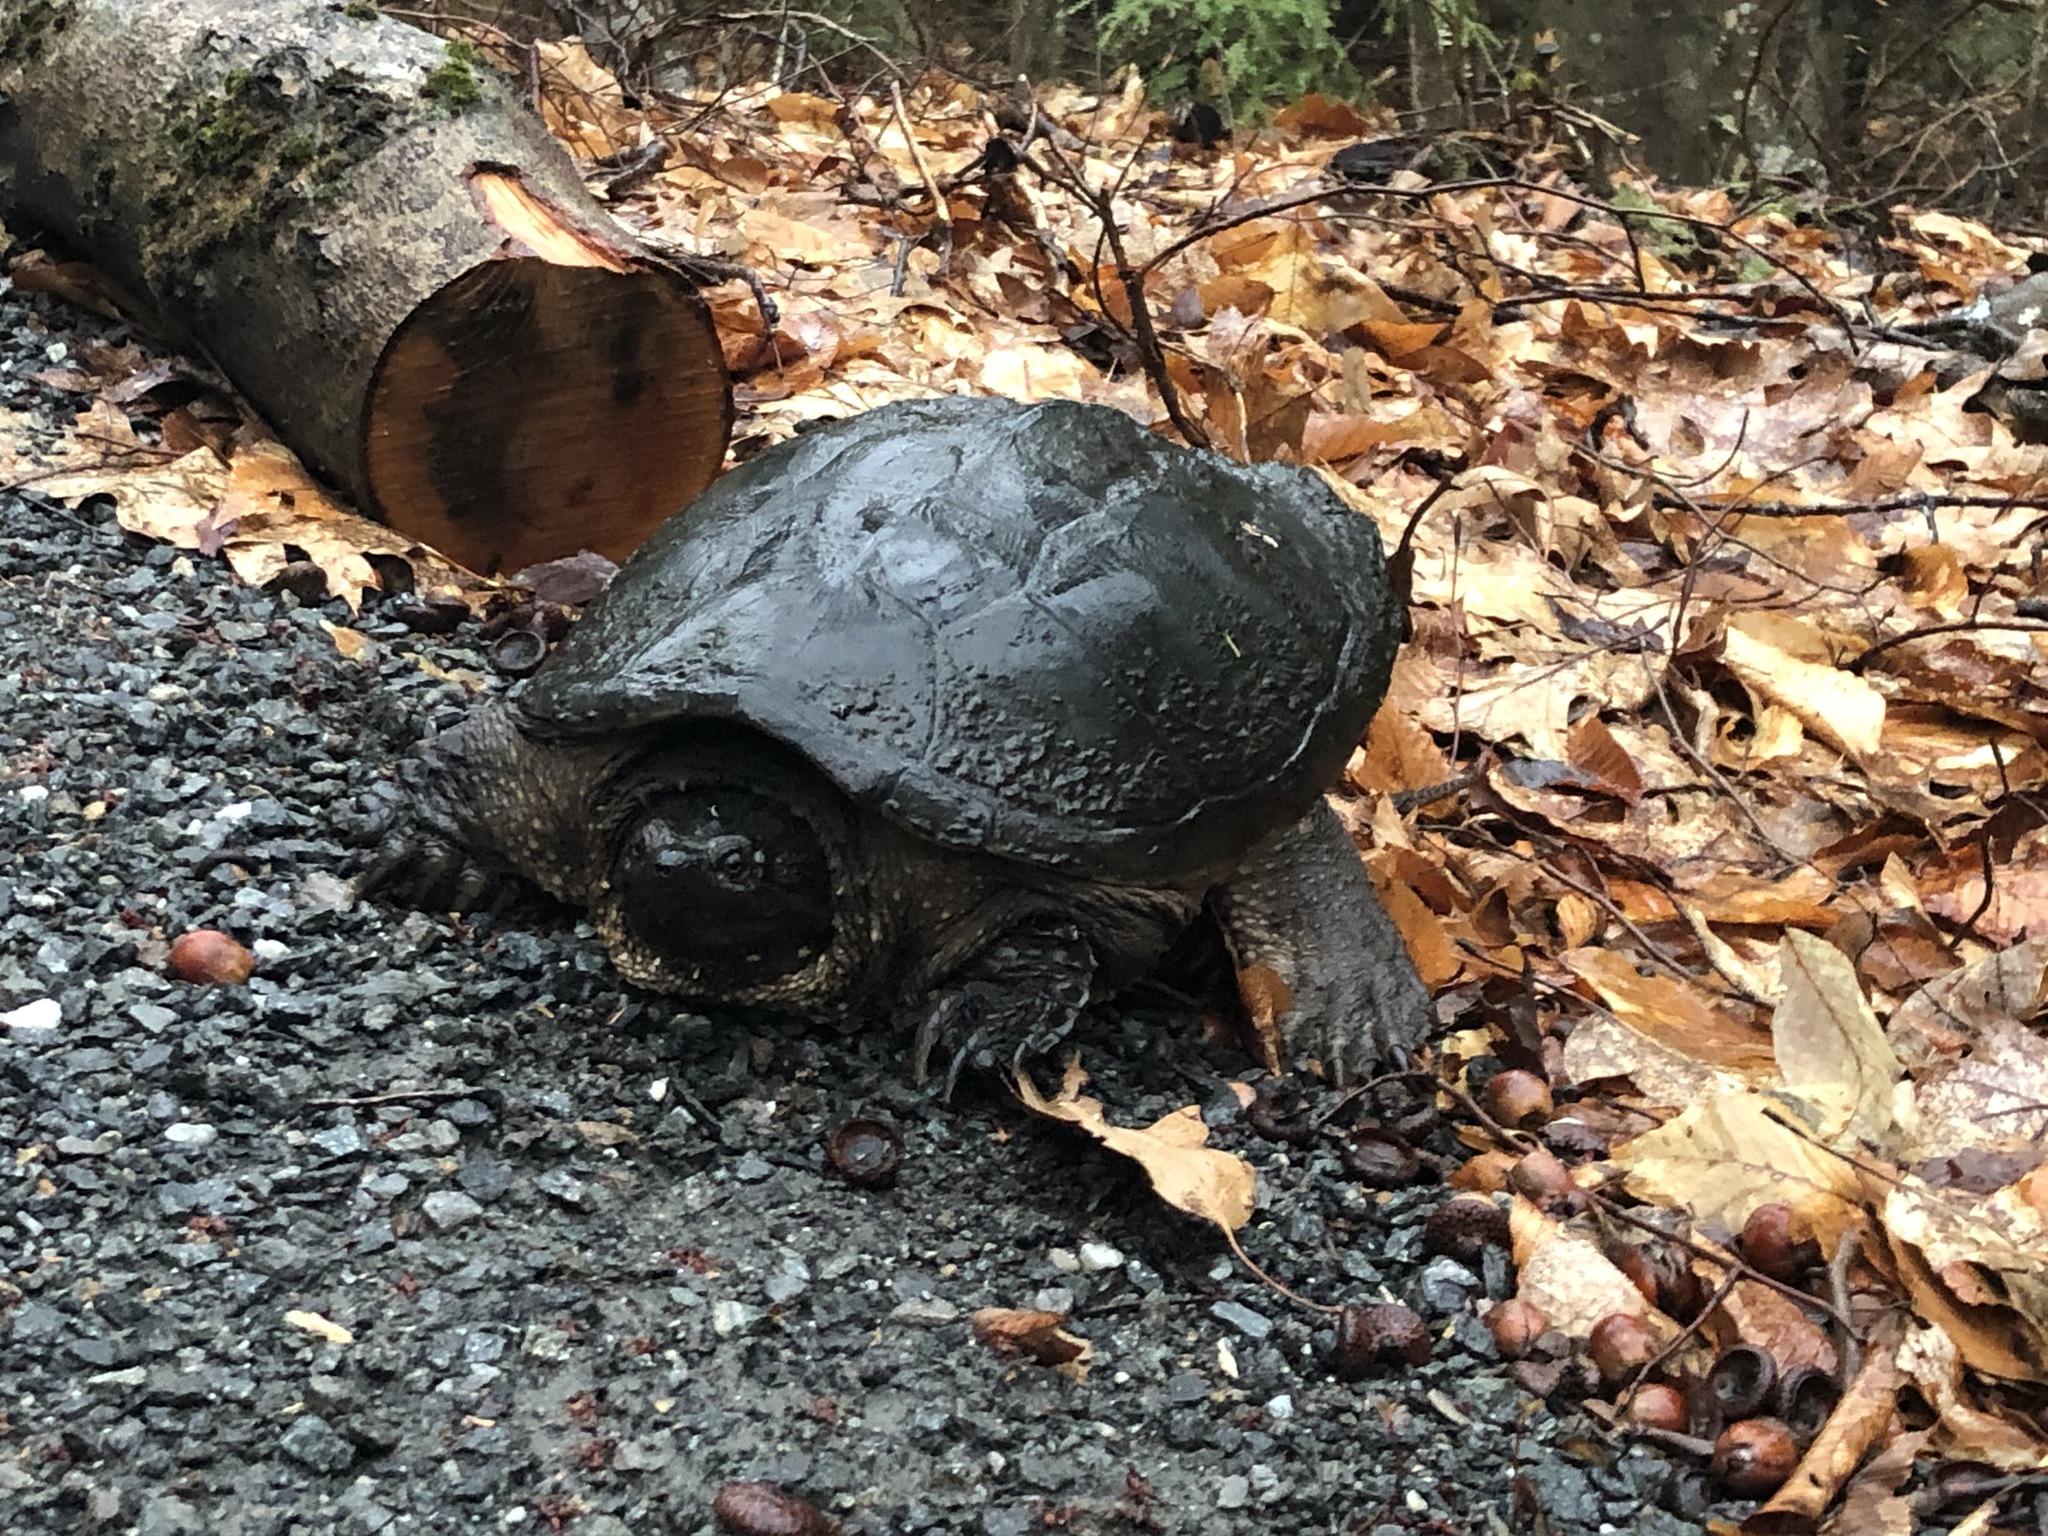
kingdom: Animalia
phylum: Chordata
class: Testudines
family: Chelydridae
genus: Chelydra
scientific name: Chelydra serpentina
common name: Common snapping turtle
